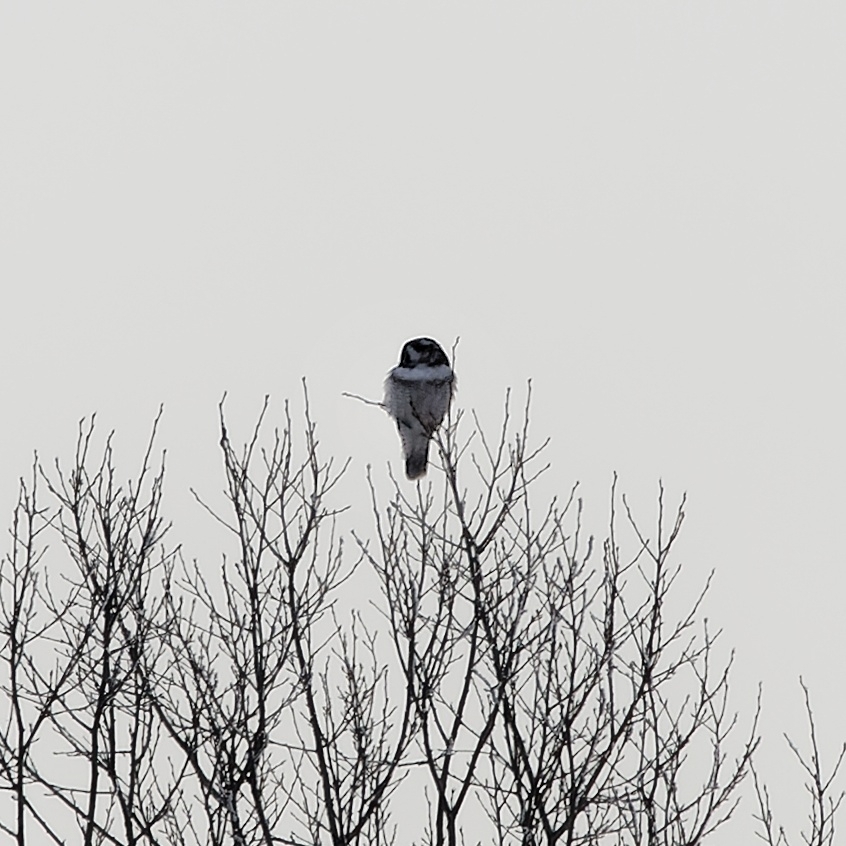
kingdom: Animalia
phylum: Chordata
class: Aves
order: Strigiformes
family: Strigidae
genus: Surnia
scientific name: Surnia ulula
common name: Northern hawk-owl
